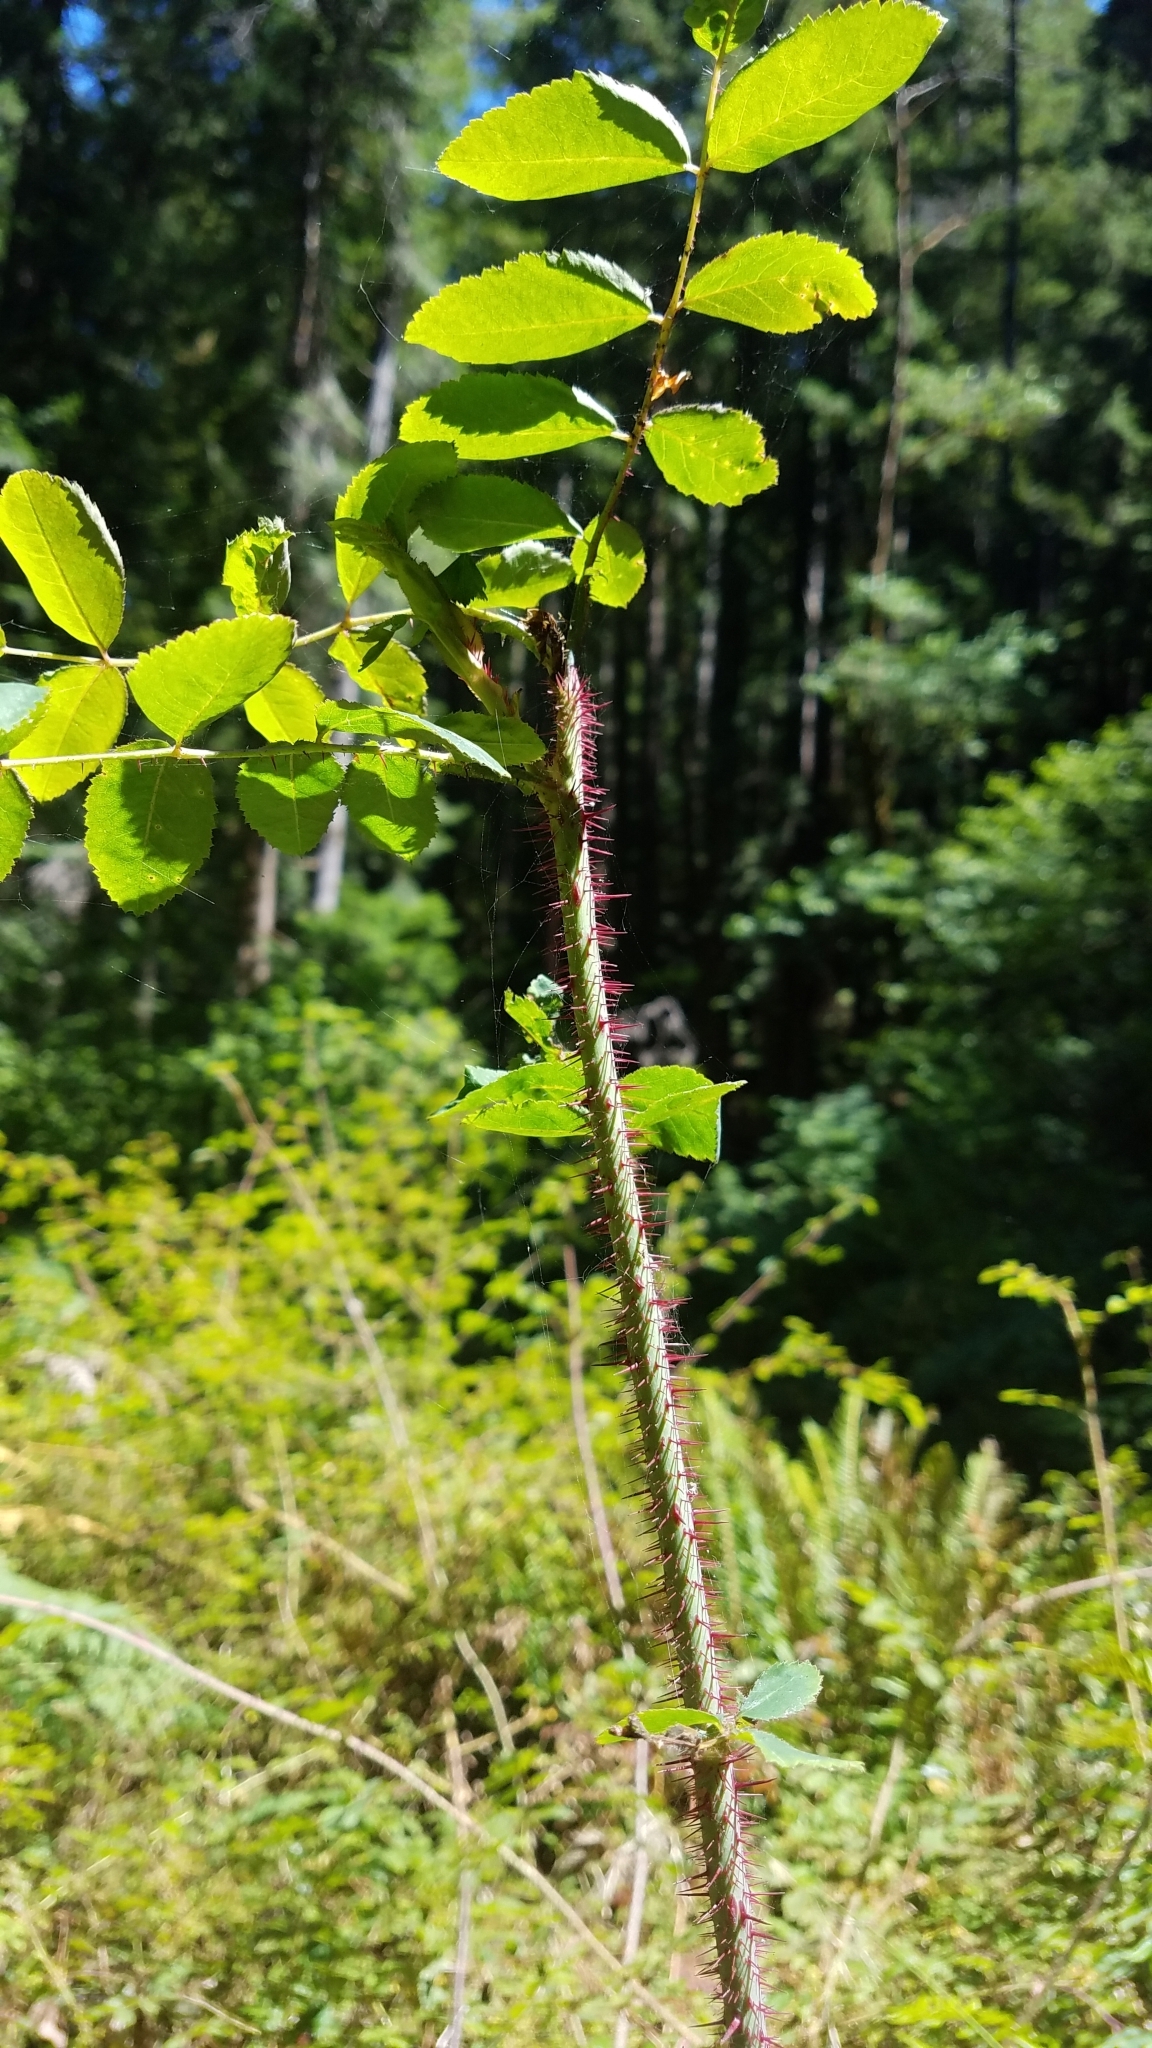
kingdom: Plantae
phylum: Tracheophyta
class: Magnoliopsida
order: Rosales
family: Rosaceae
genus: Rosa
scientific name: Rosa gymnocarpa
